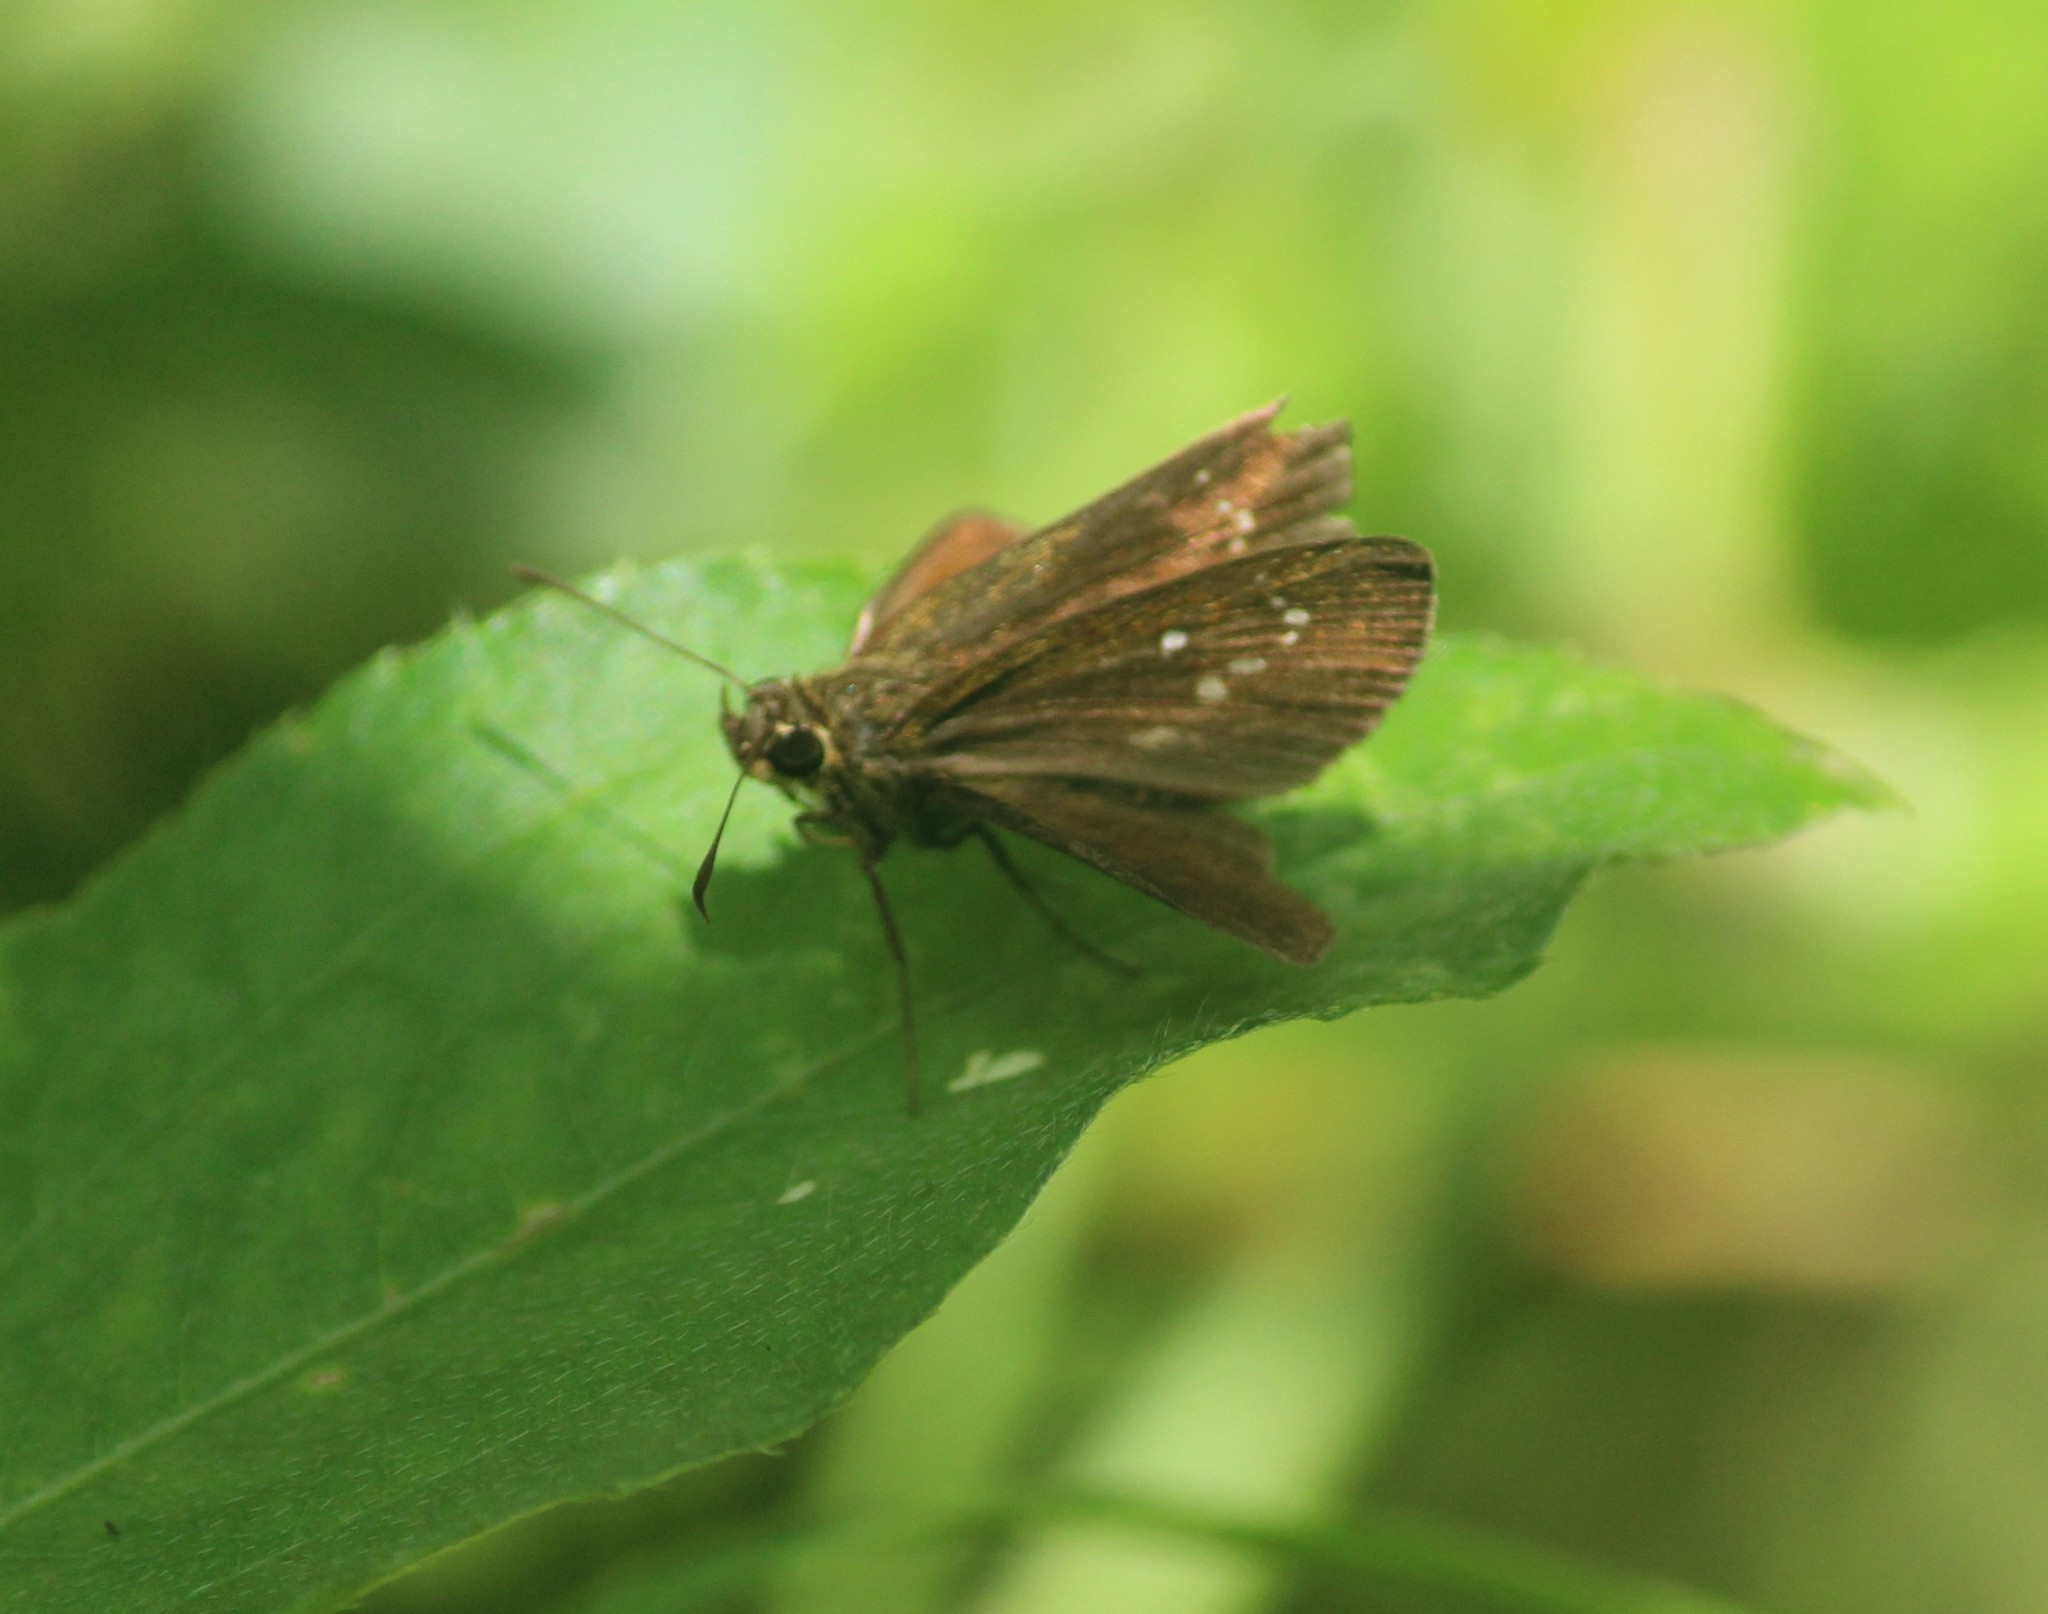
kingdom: Animalia
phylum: Arthropoda
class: Insecta
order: Lepidoptera
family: Hesperiidae
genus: Iambrix
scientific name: Iambrix salsala
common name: Chestnut bob
